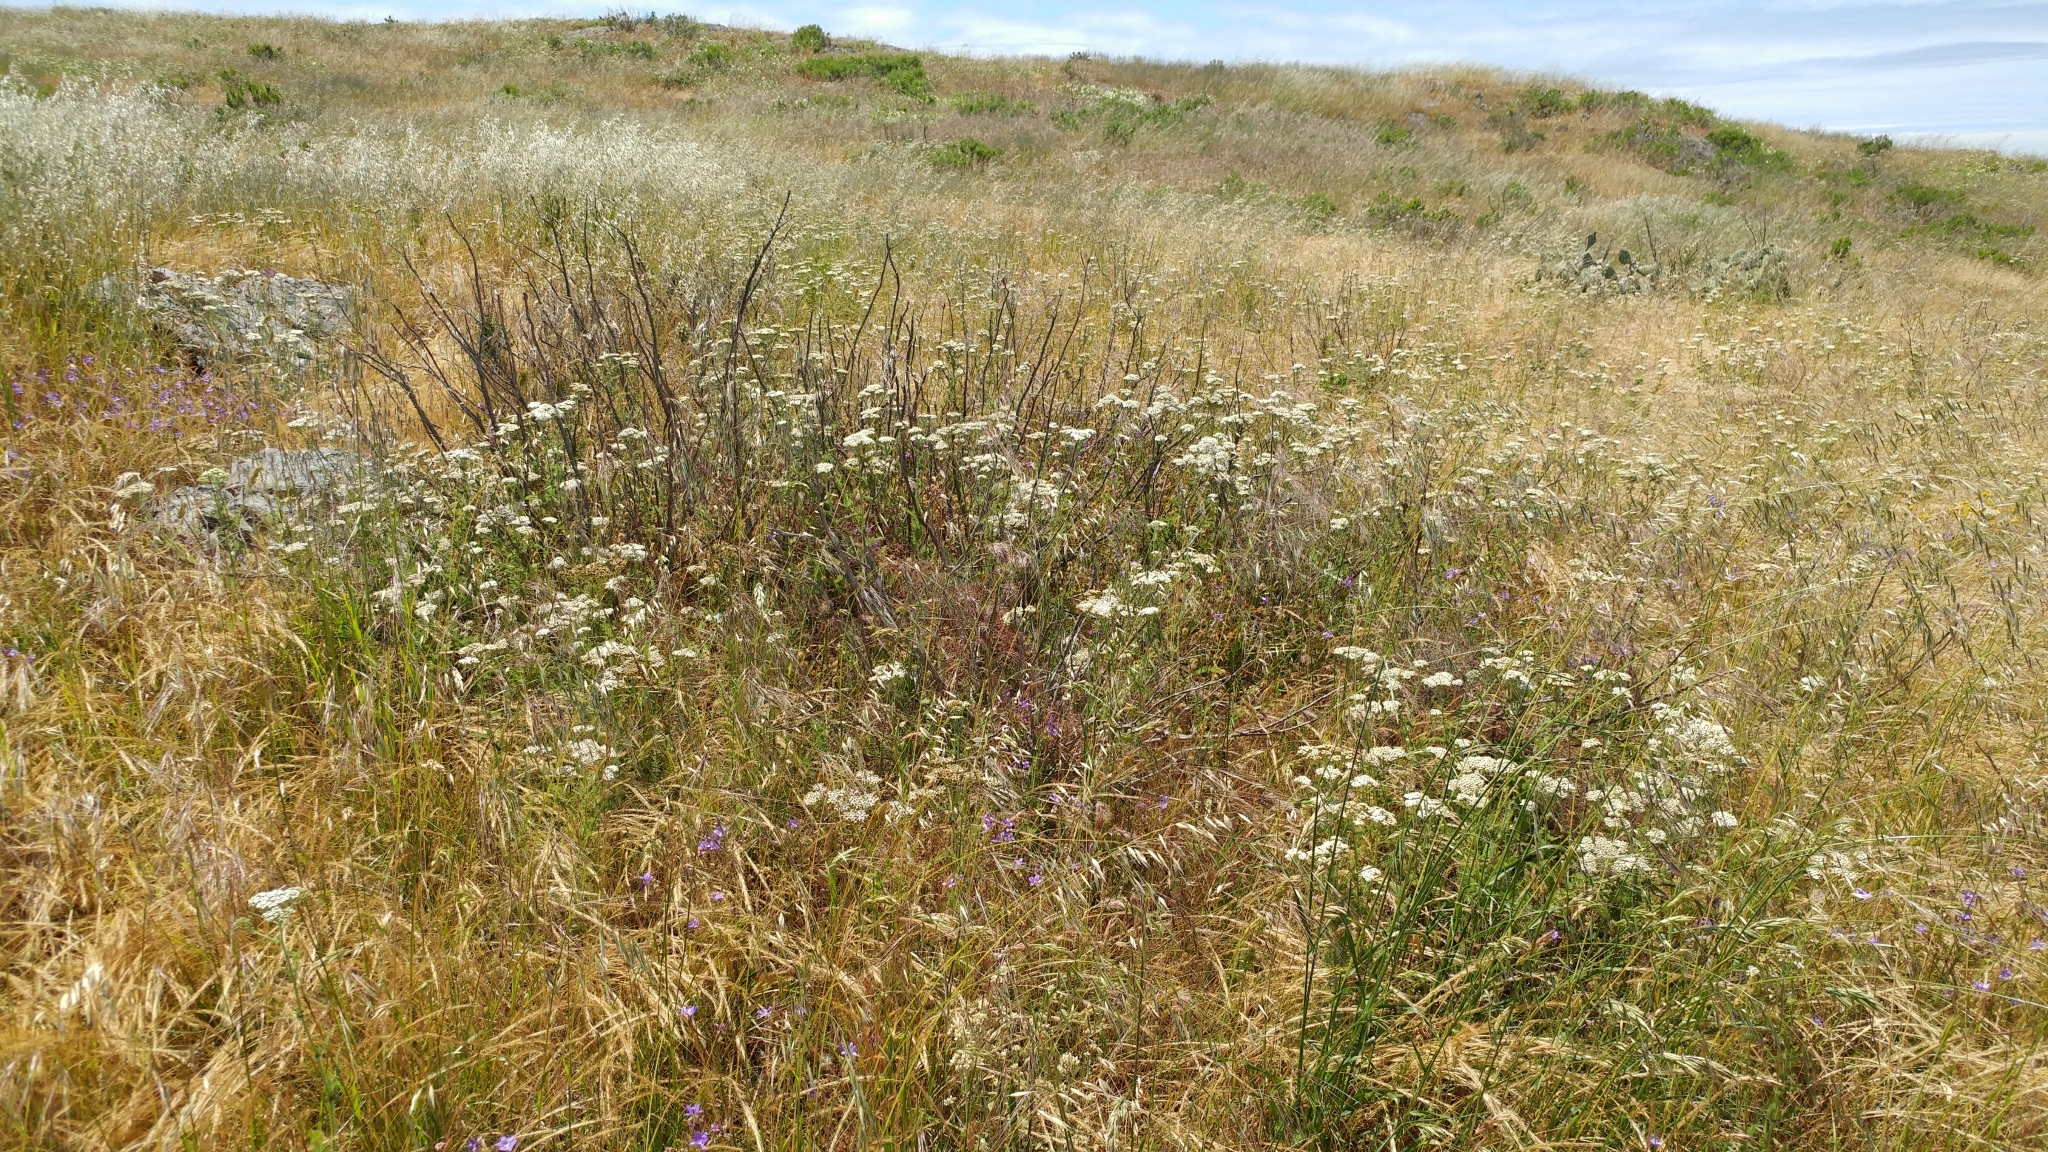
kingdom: Plantae
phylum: Tracheophyta
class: Magnoliopsida
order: Asterales
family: Asteraceae
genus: Achillea
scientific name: Achillea millefolium
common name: Yarrow
